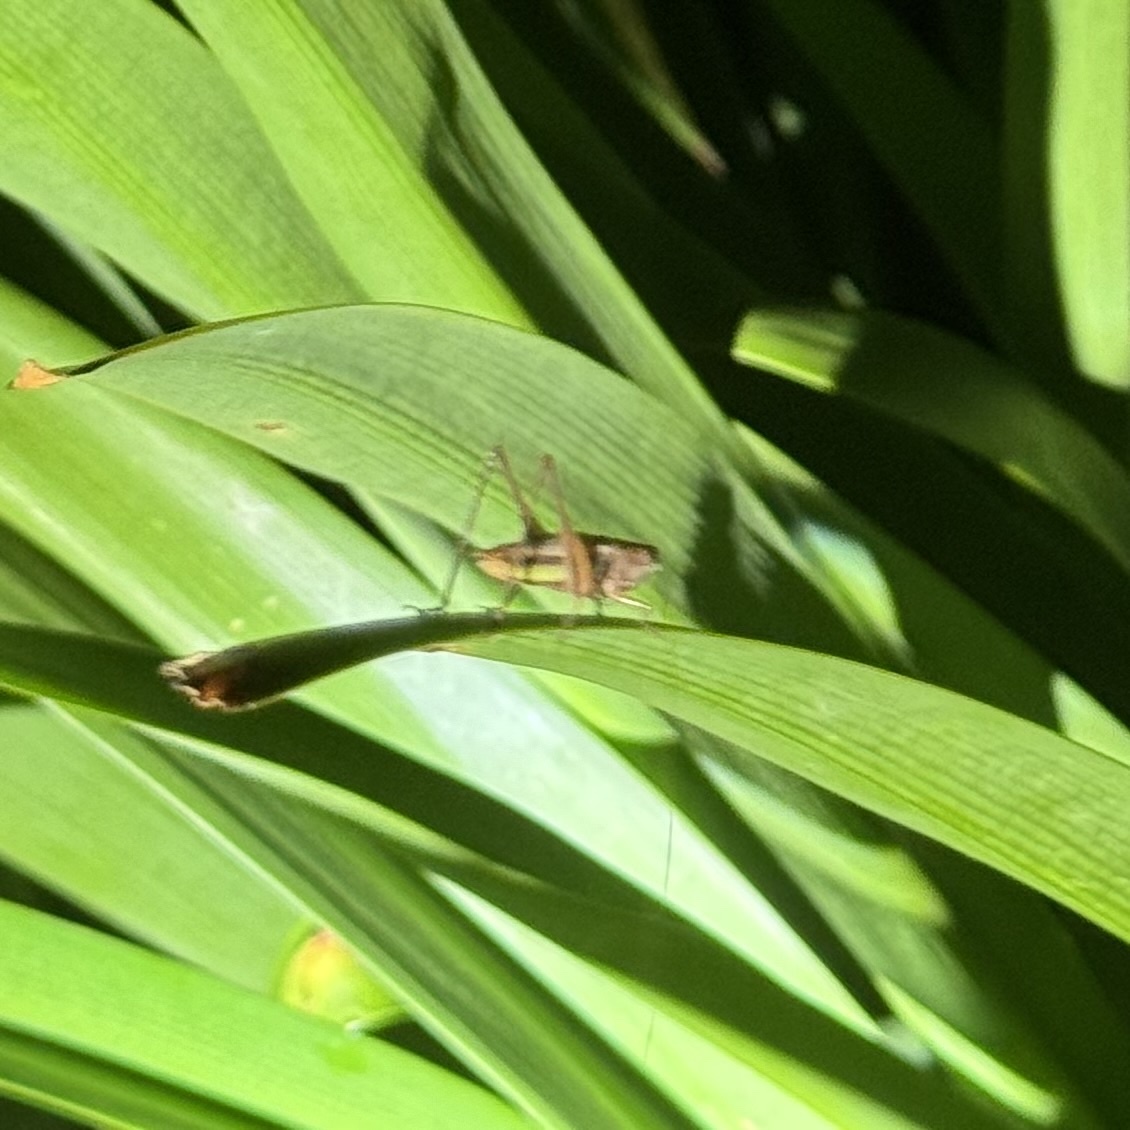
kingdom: Animalia
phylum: Arthropoda
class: Insecta
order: Orthoptera
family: Tettigoniidae
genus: Conocephalus
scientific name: Conocephalus albescens
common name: Whitish meadow katydid
